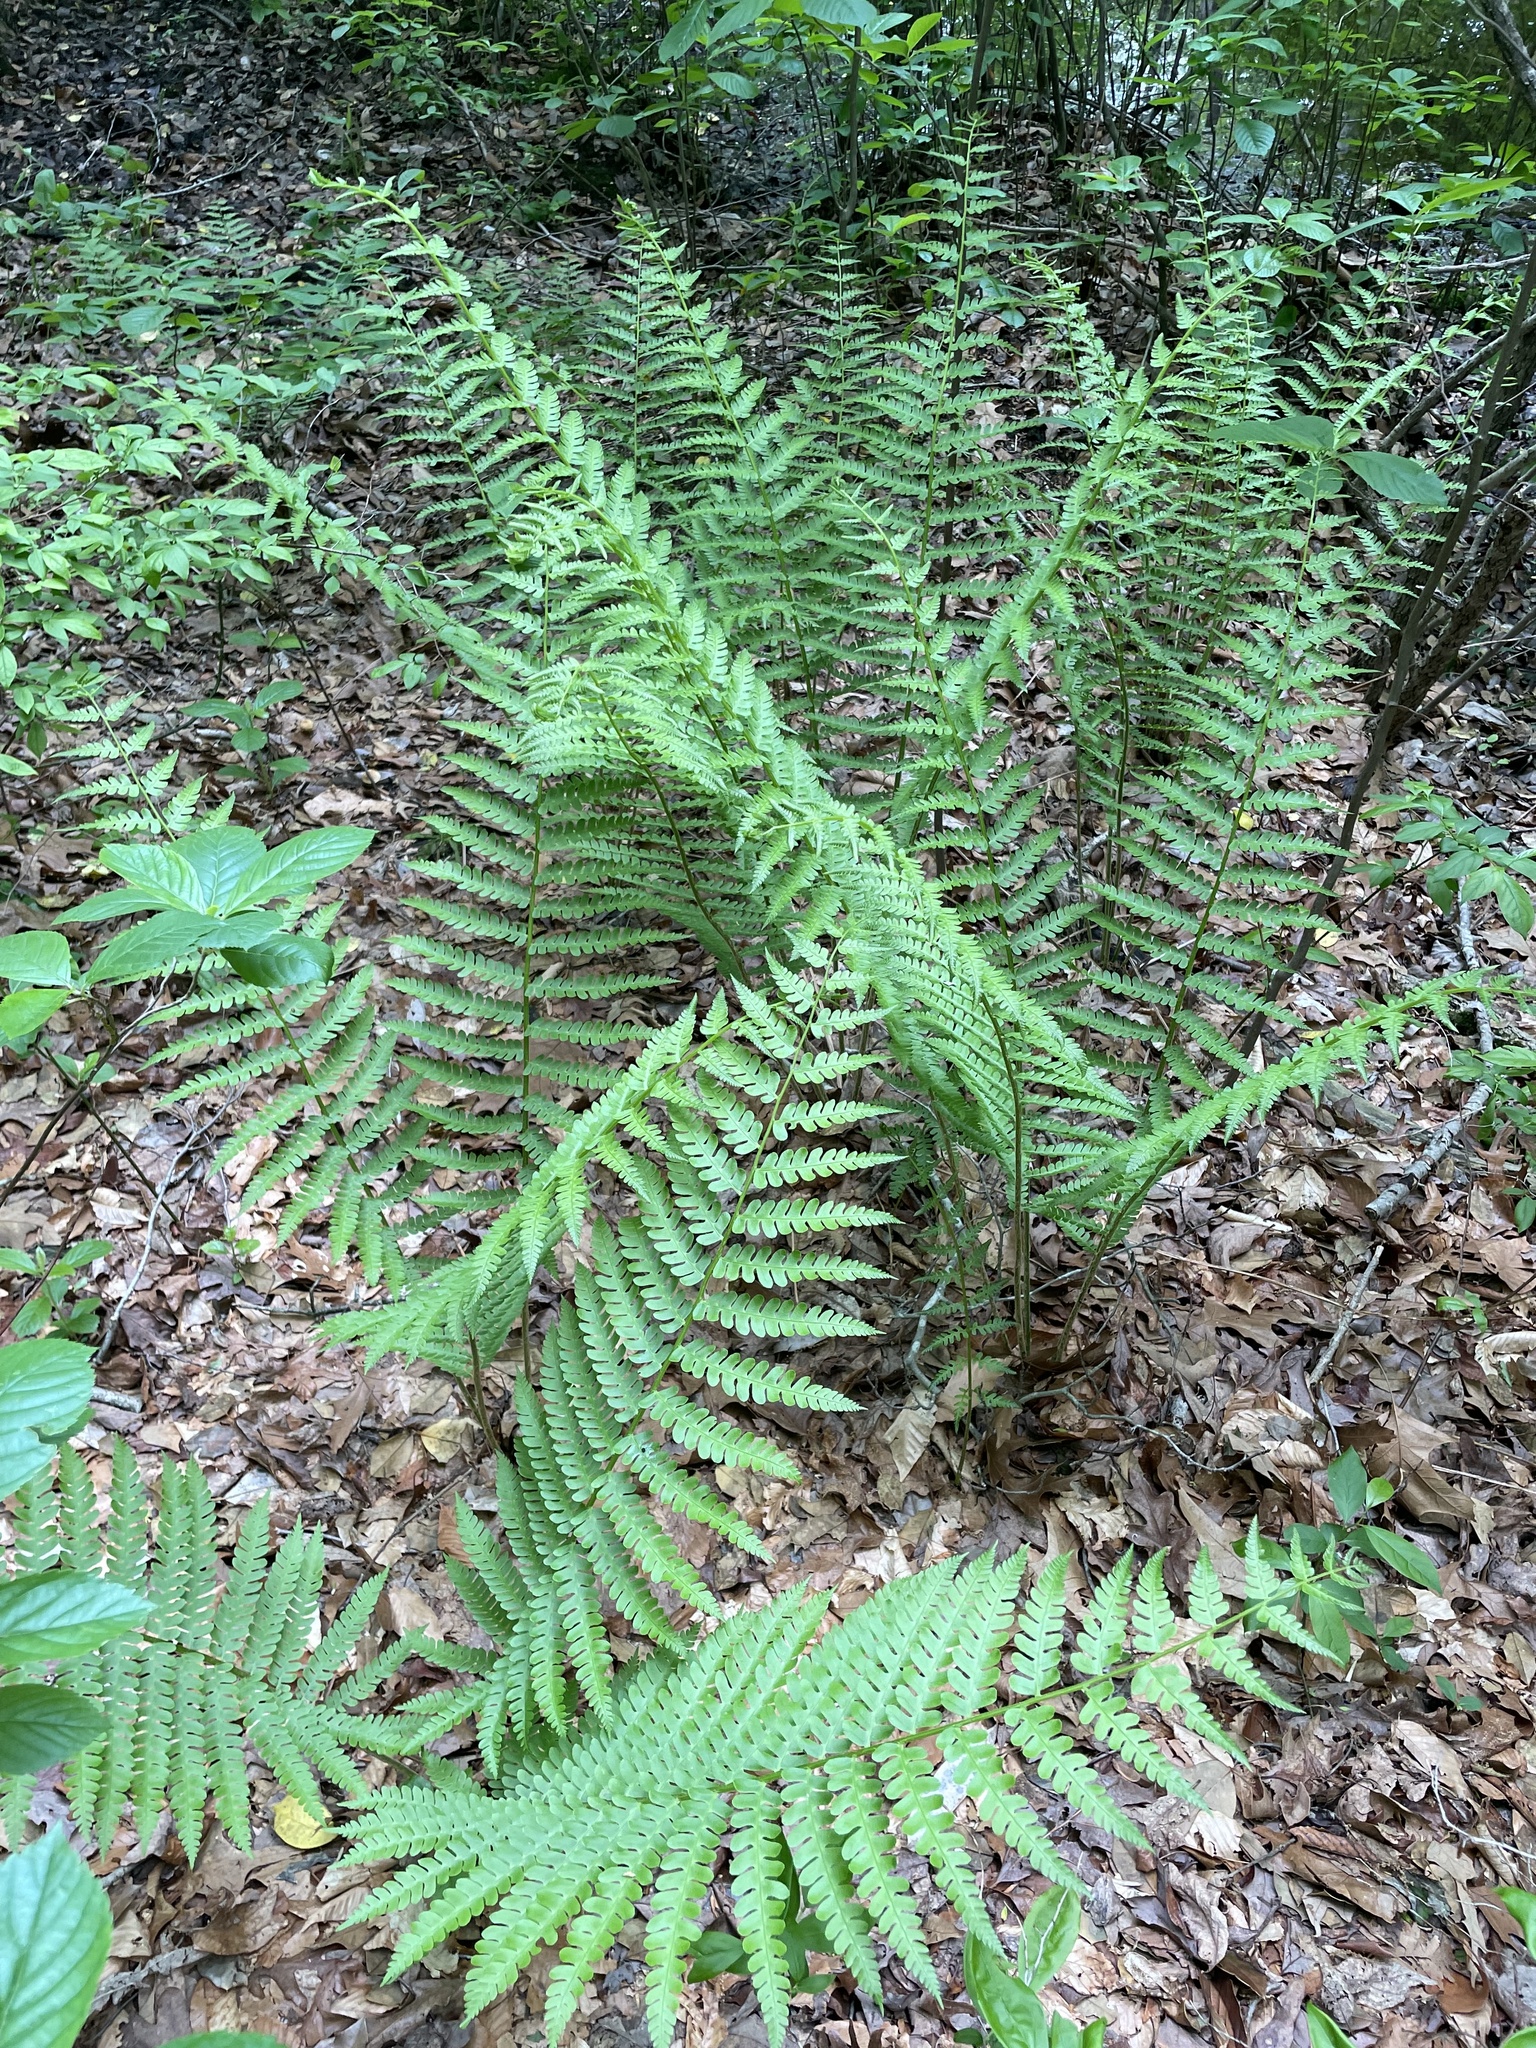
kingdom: Plantae
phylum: Tracheophyta
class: Polypodiopsida
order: Osmundales
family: Osmundaceae
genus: Osmundastrum
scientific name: Osmundastrum cinnamomeum
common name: Cinnamon fern
